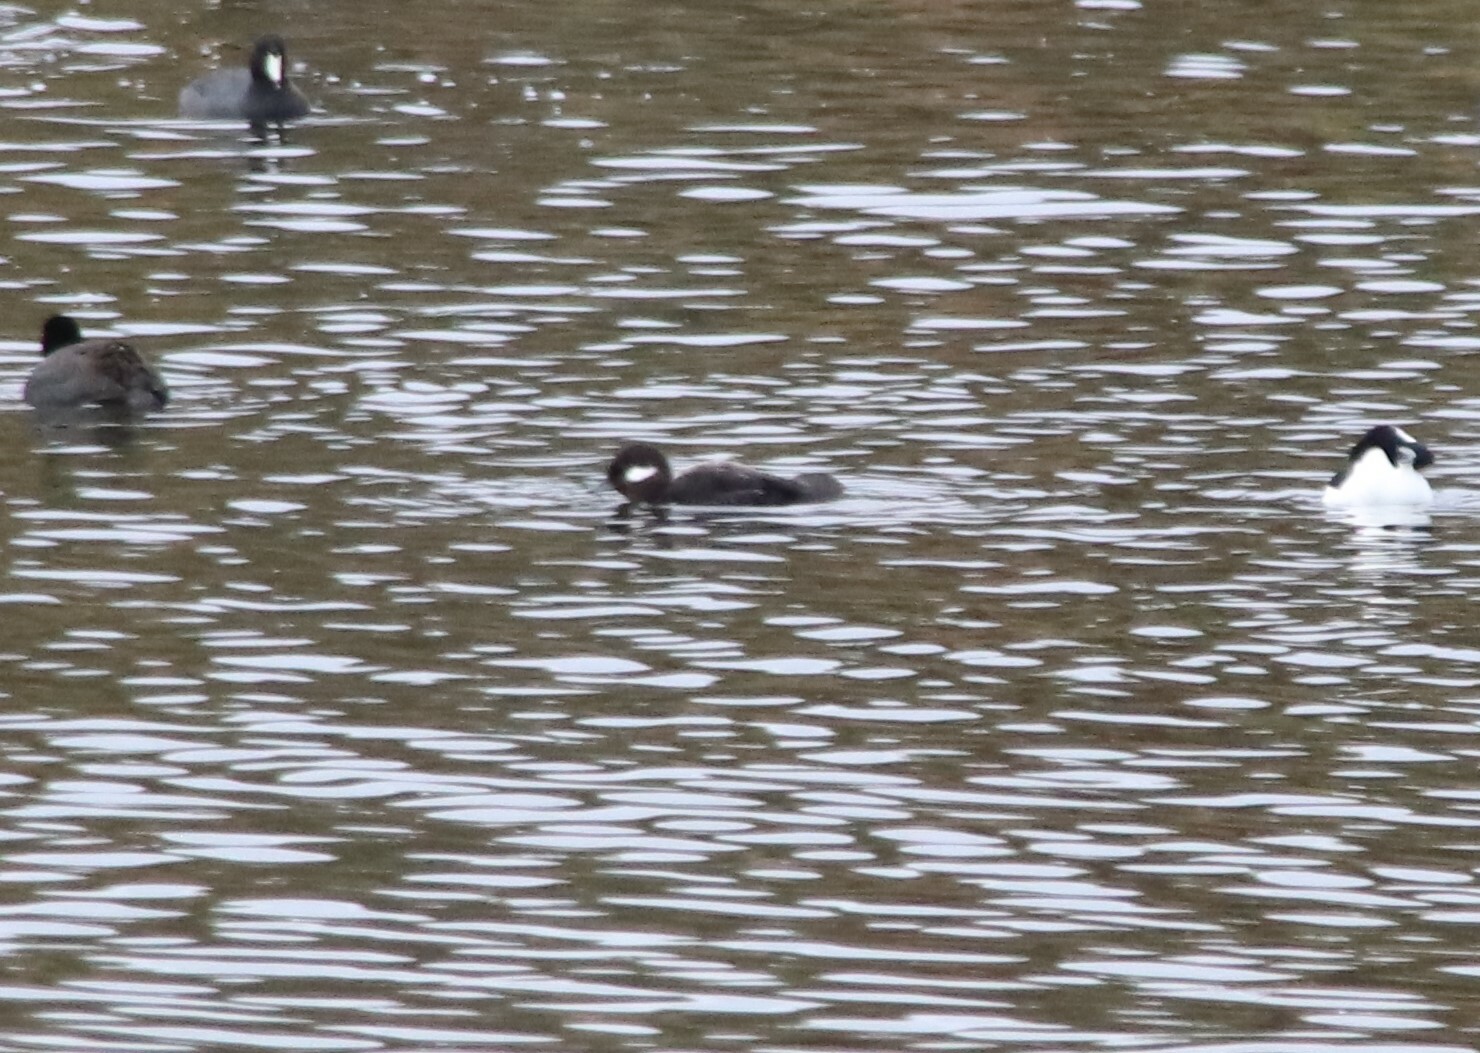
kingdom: Animalia
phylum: Chordata
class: Aves
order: Anseriformes
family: Anatidae
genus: Bucephala
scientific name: Bucephala albeola
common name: Bufflehead
